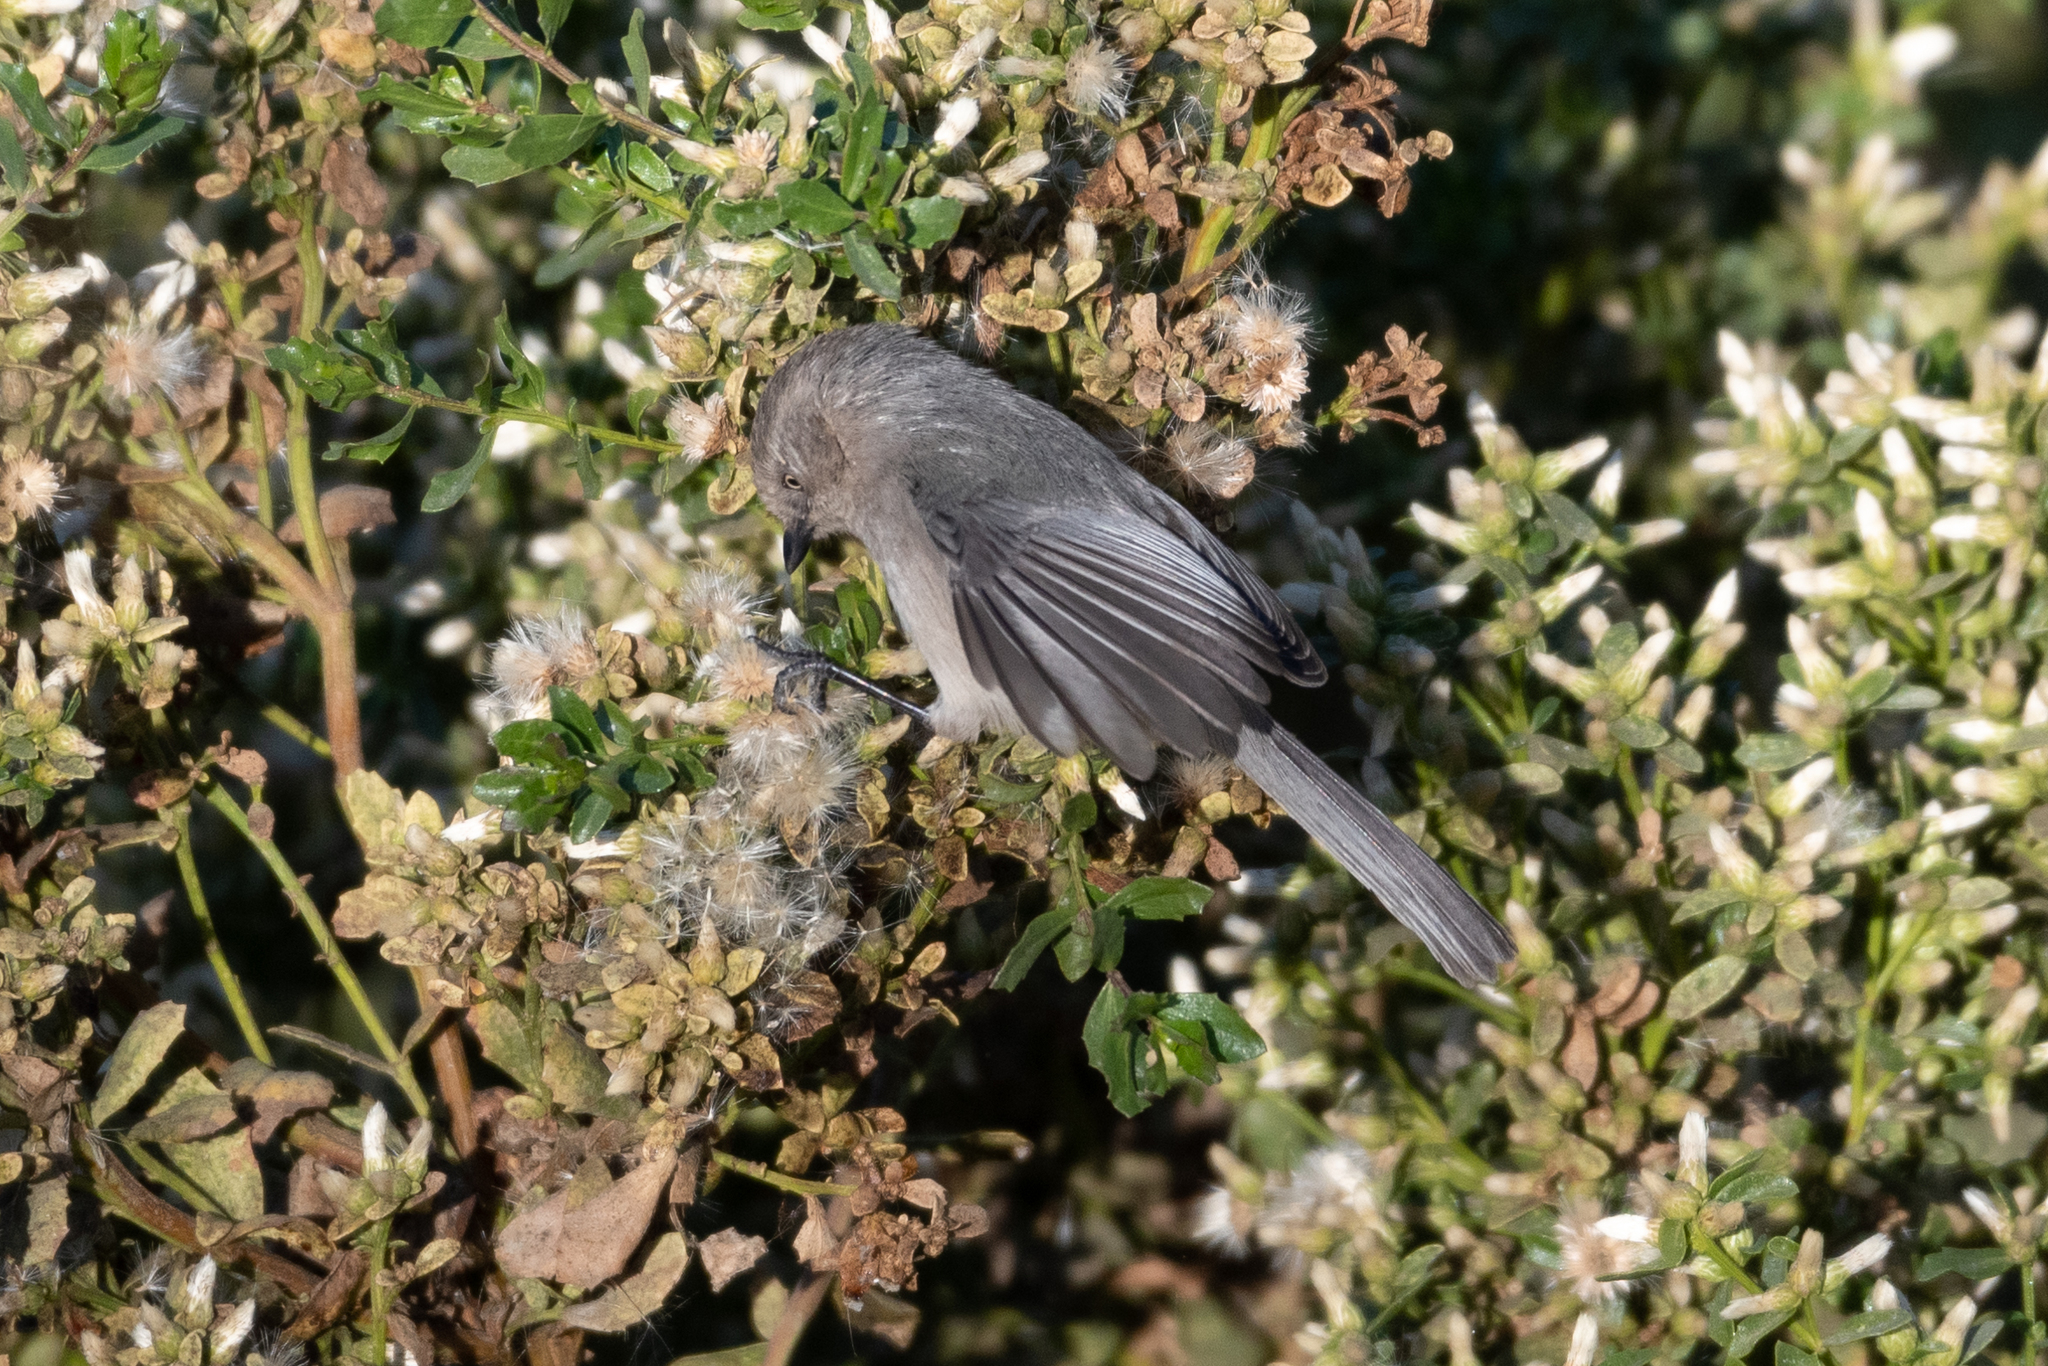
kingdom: Animalia
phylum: Chordata
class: Aves
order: Passeriformes
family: Aegithalidae
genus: Psaltriparus
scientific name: Psaltriparus minimus
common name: American bushtit
